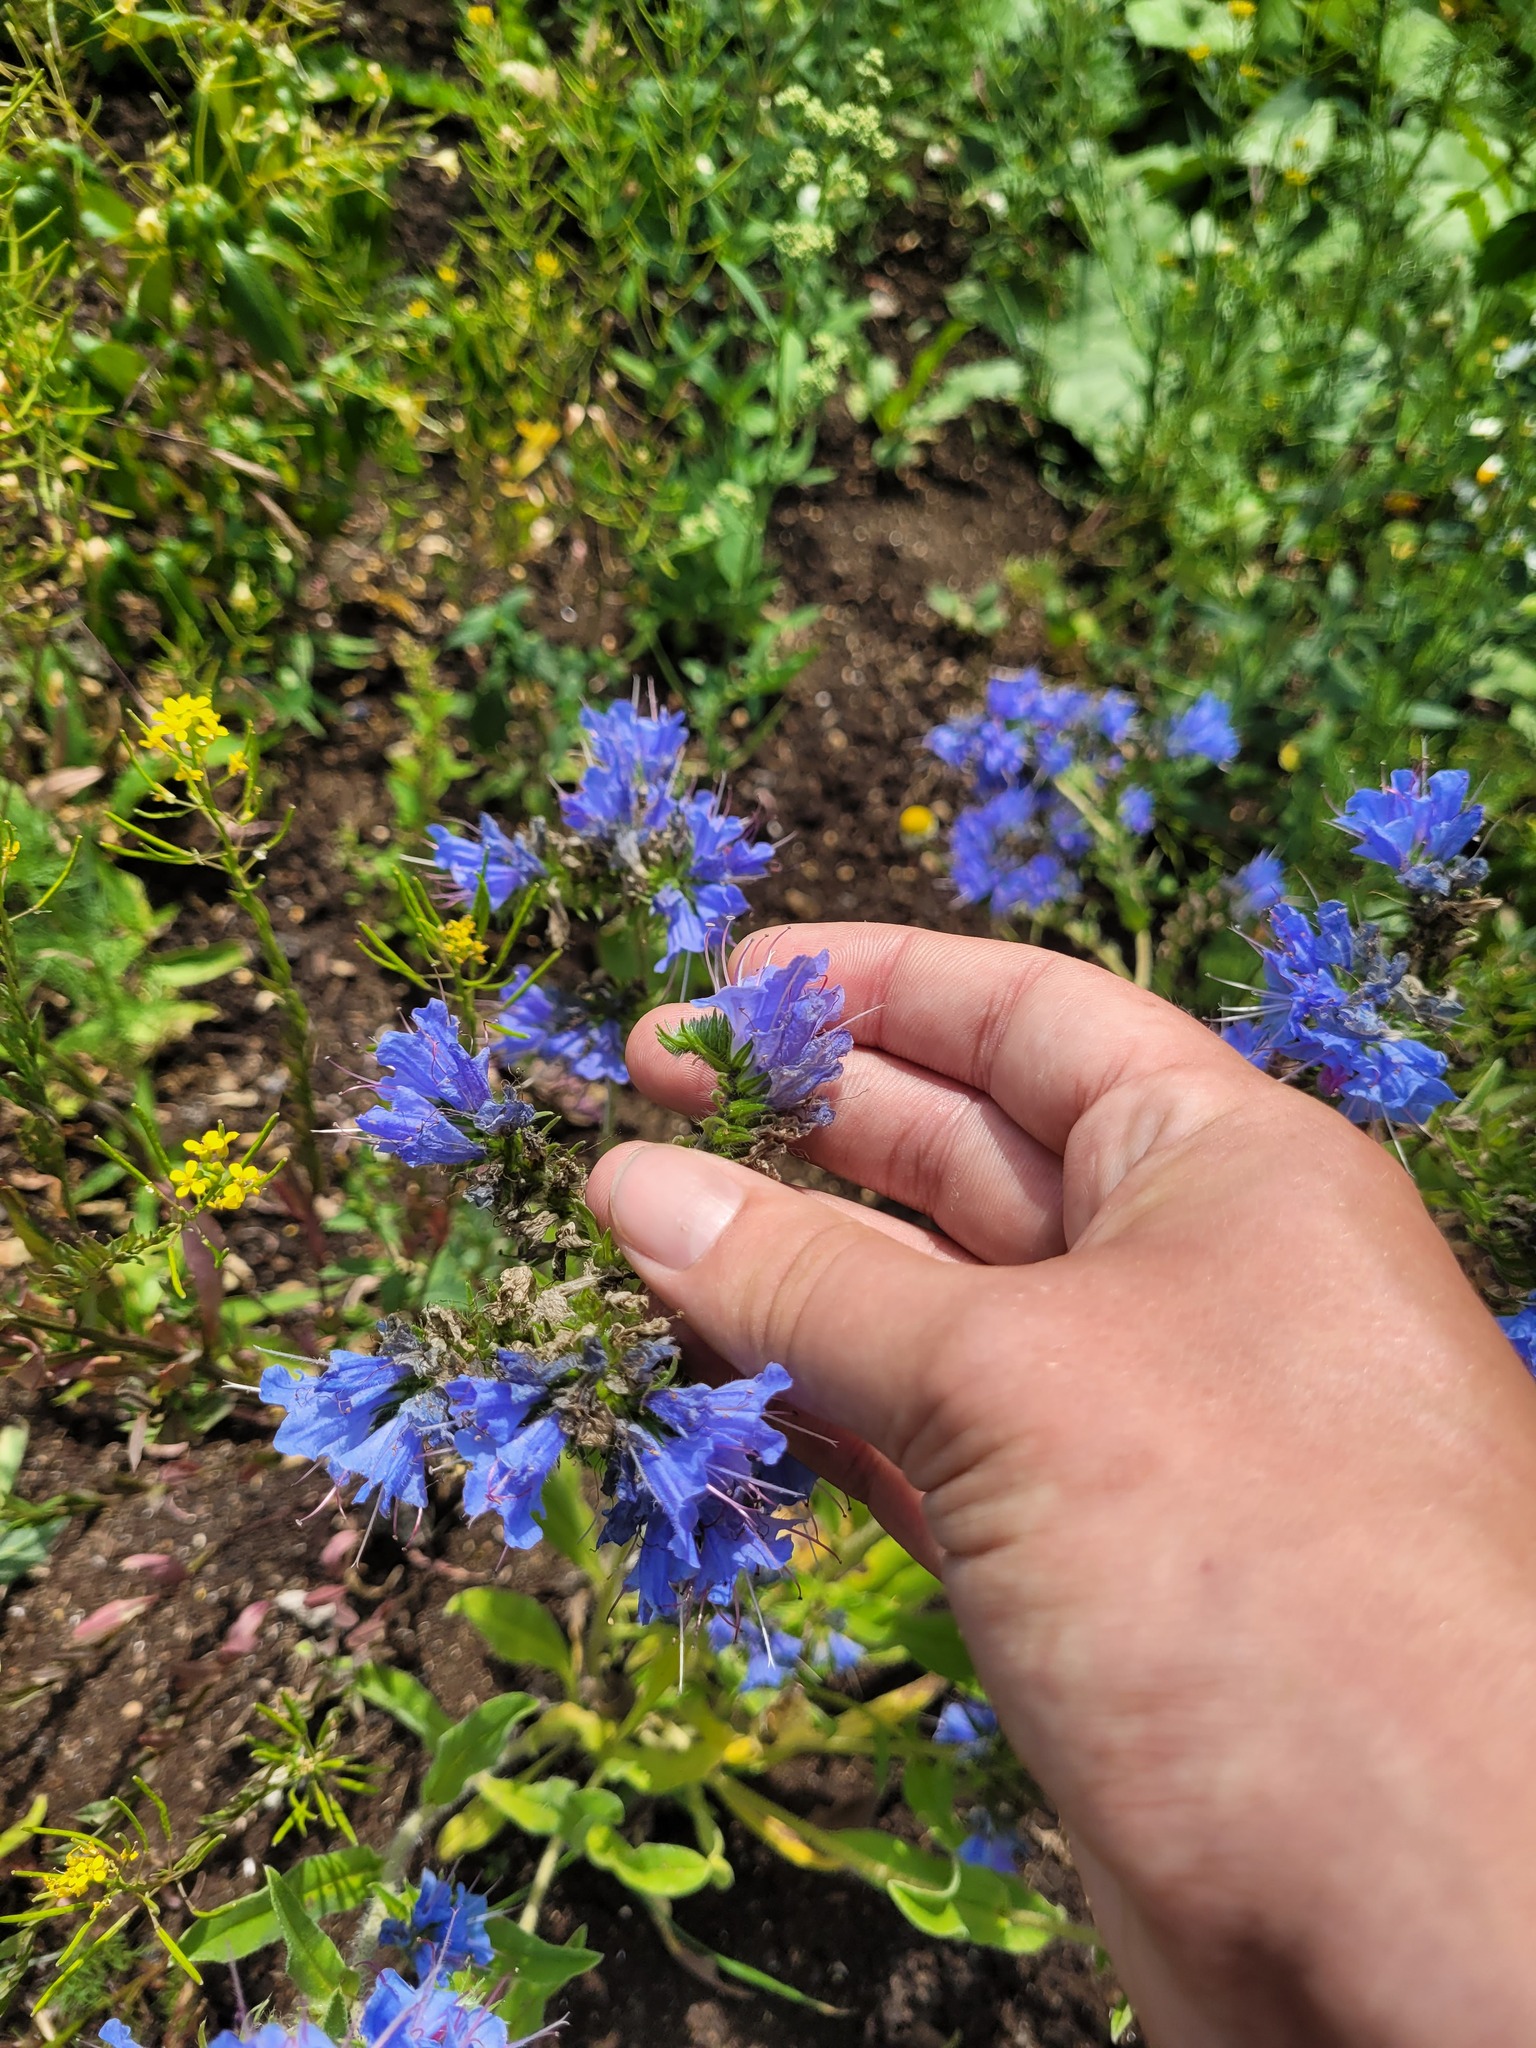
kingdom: Plantae
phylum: Tracheophyta
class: Magnoliopsida
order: Boraginales
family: Boraginaceae
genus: Echium
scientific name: Echium vulgare
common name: Common viper's bugloss
